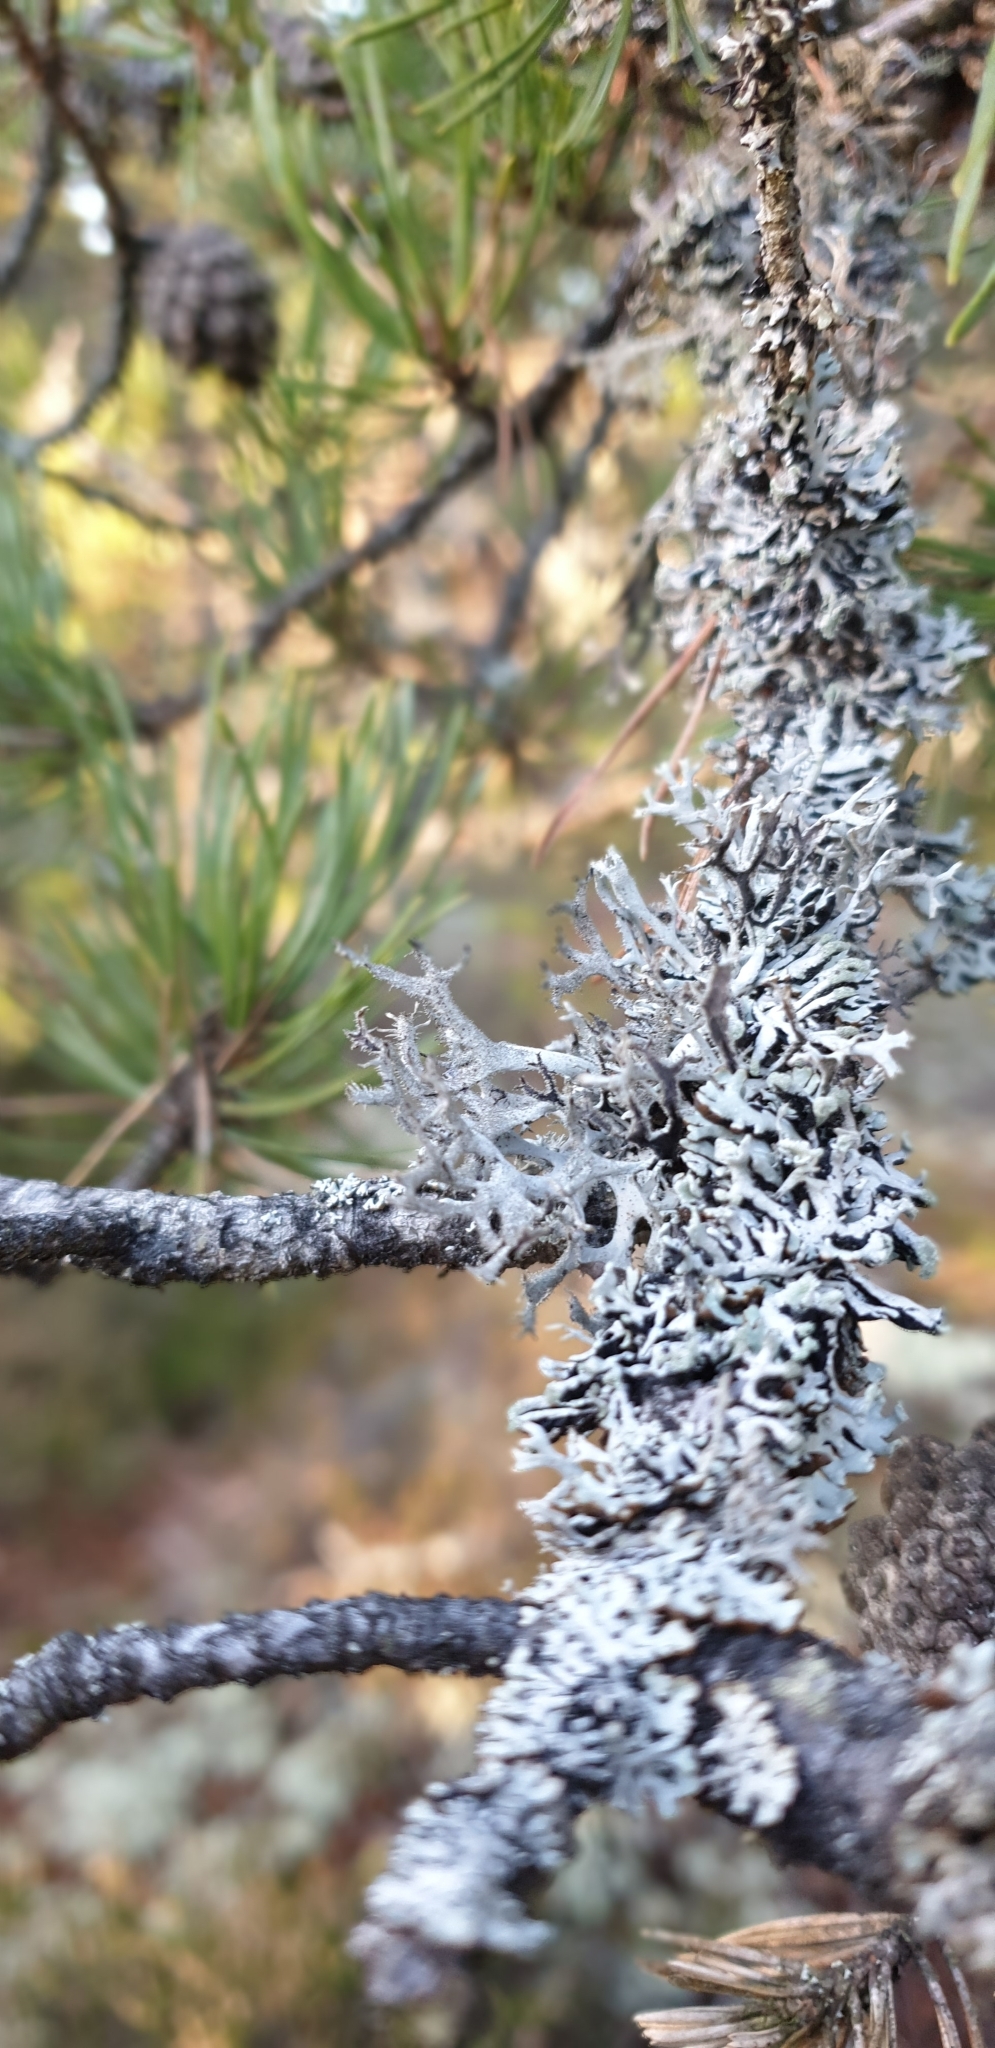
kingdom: Fungi
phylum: Ascomycota
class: Lecanoromycetes
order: Lecanorales
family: Parmeliaceae
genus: Pseudevernia
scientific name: Pseudevernia furfuracea
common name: Tree moss
